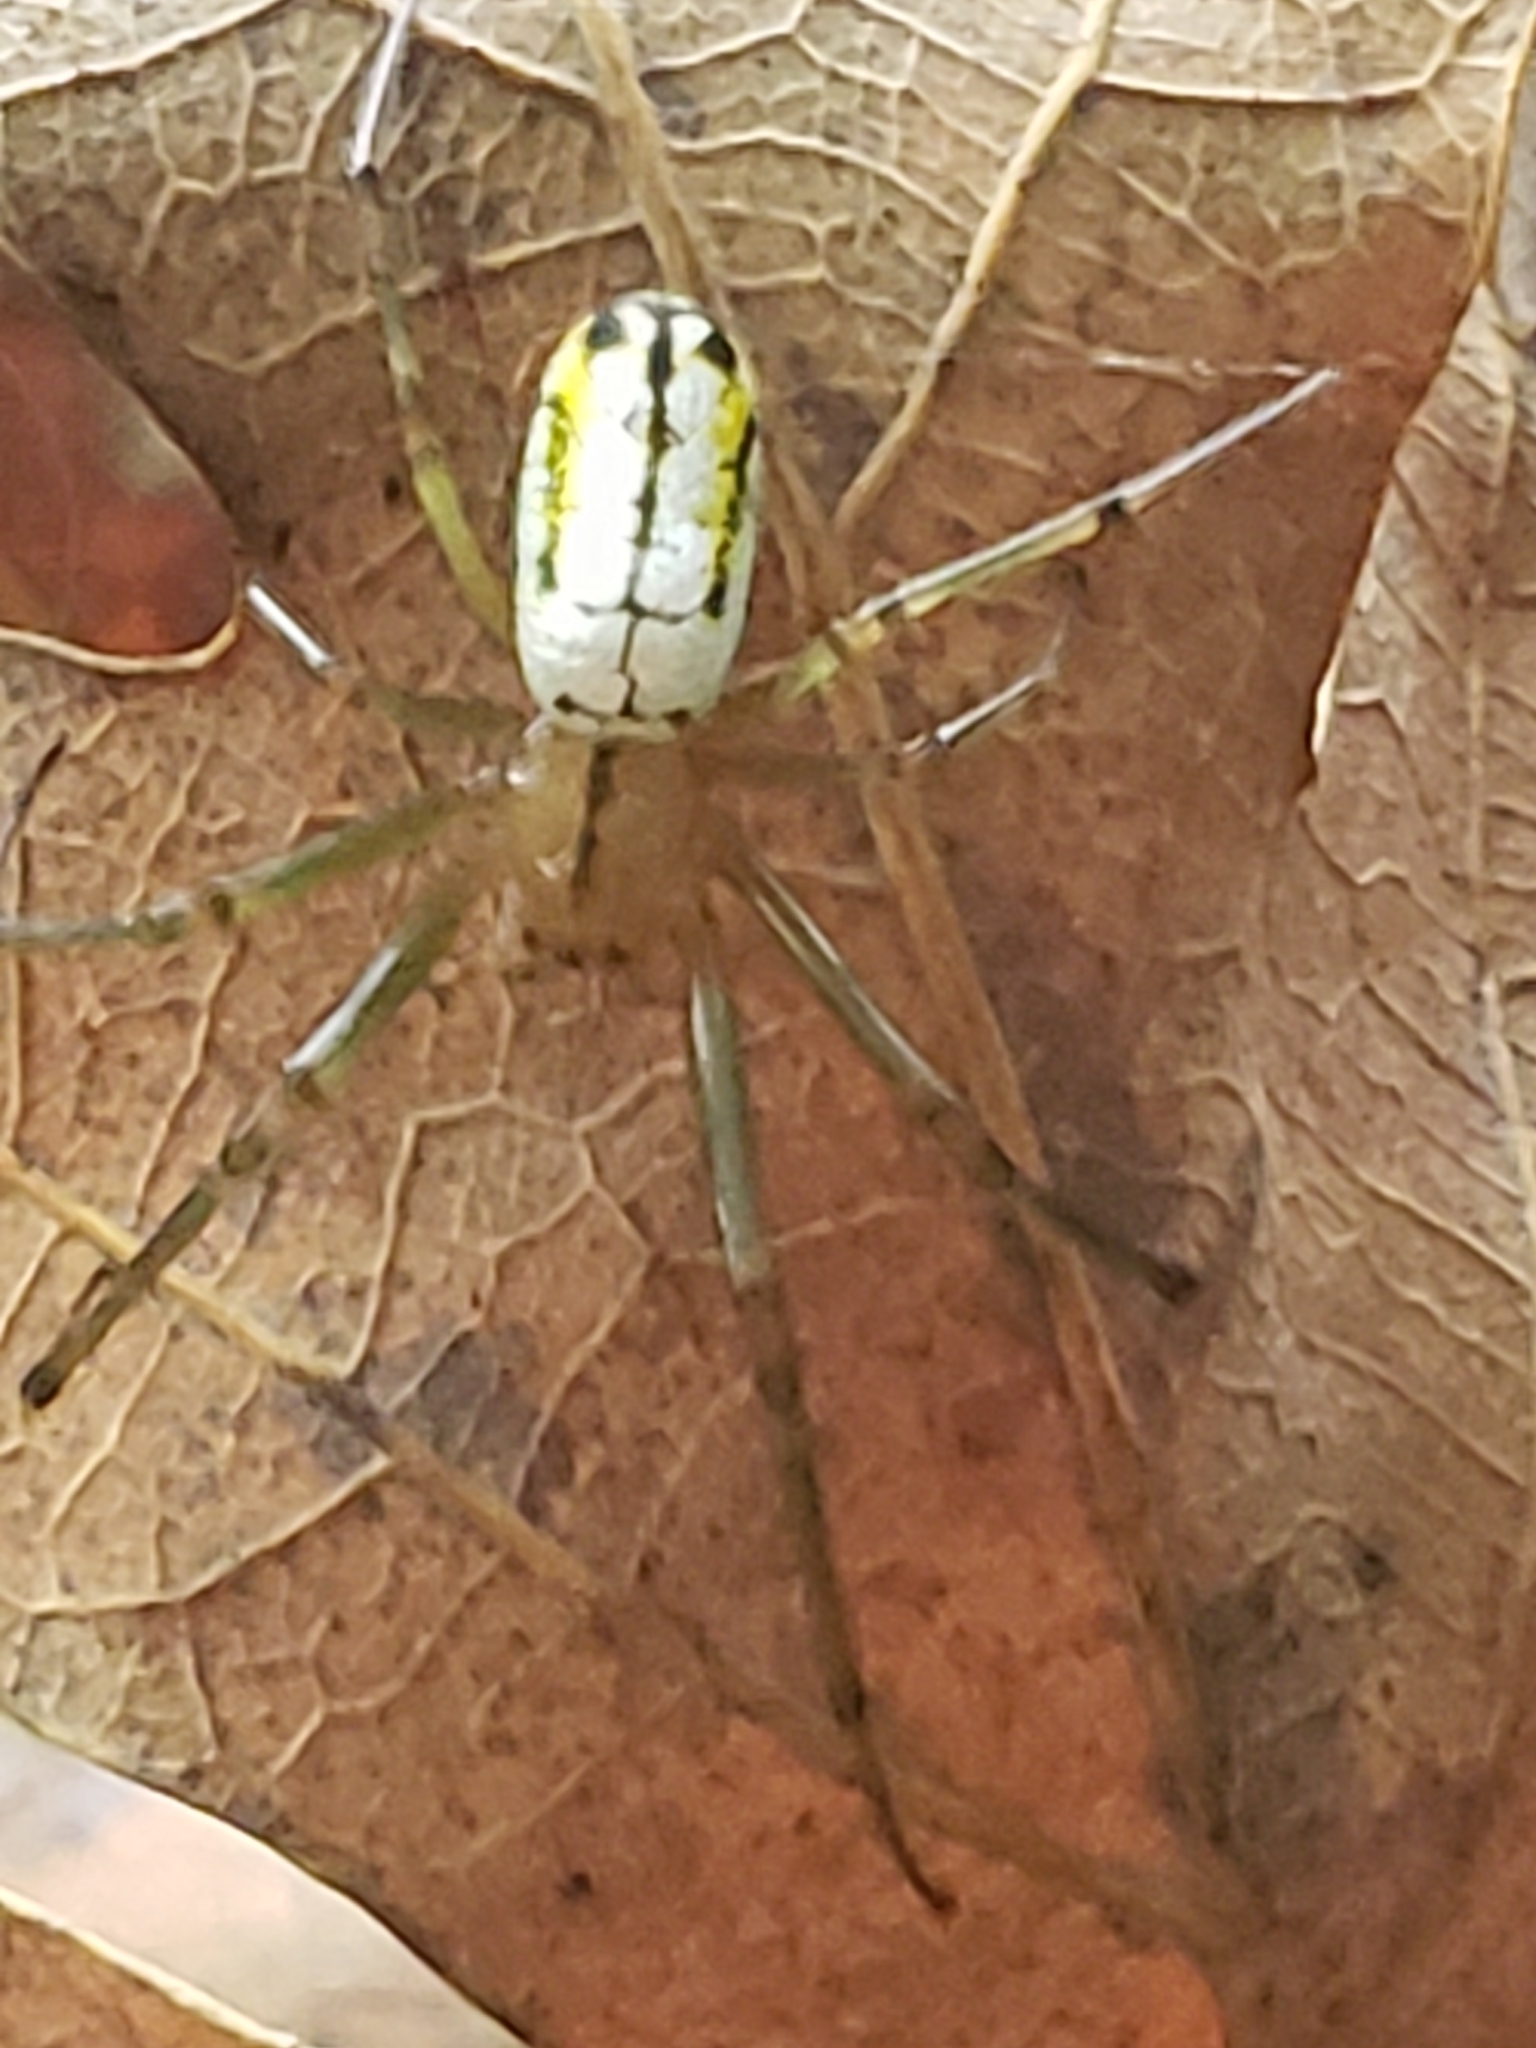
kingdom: Animalia
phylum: Arthropoda
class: Arachnida
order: Araneae
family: Tetragnathidae
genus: Leucauge
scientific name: Leucauge venusta
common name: Longjawed orb weavers
